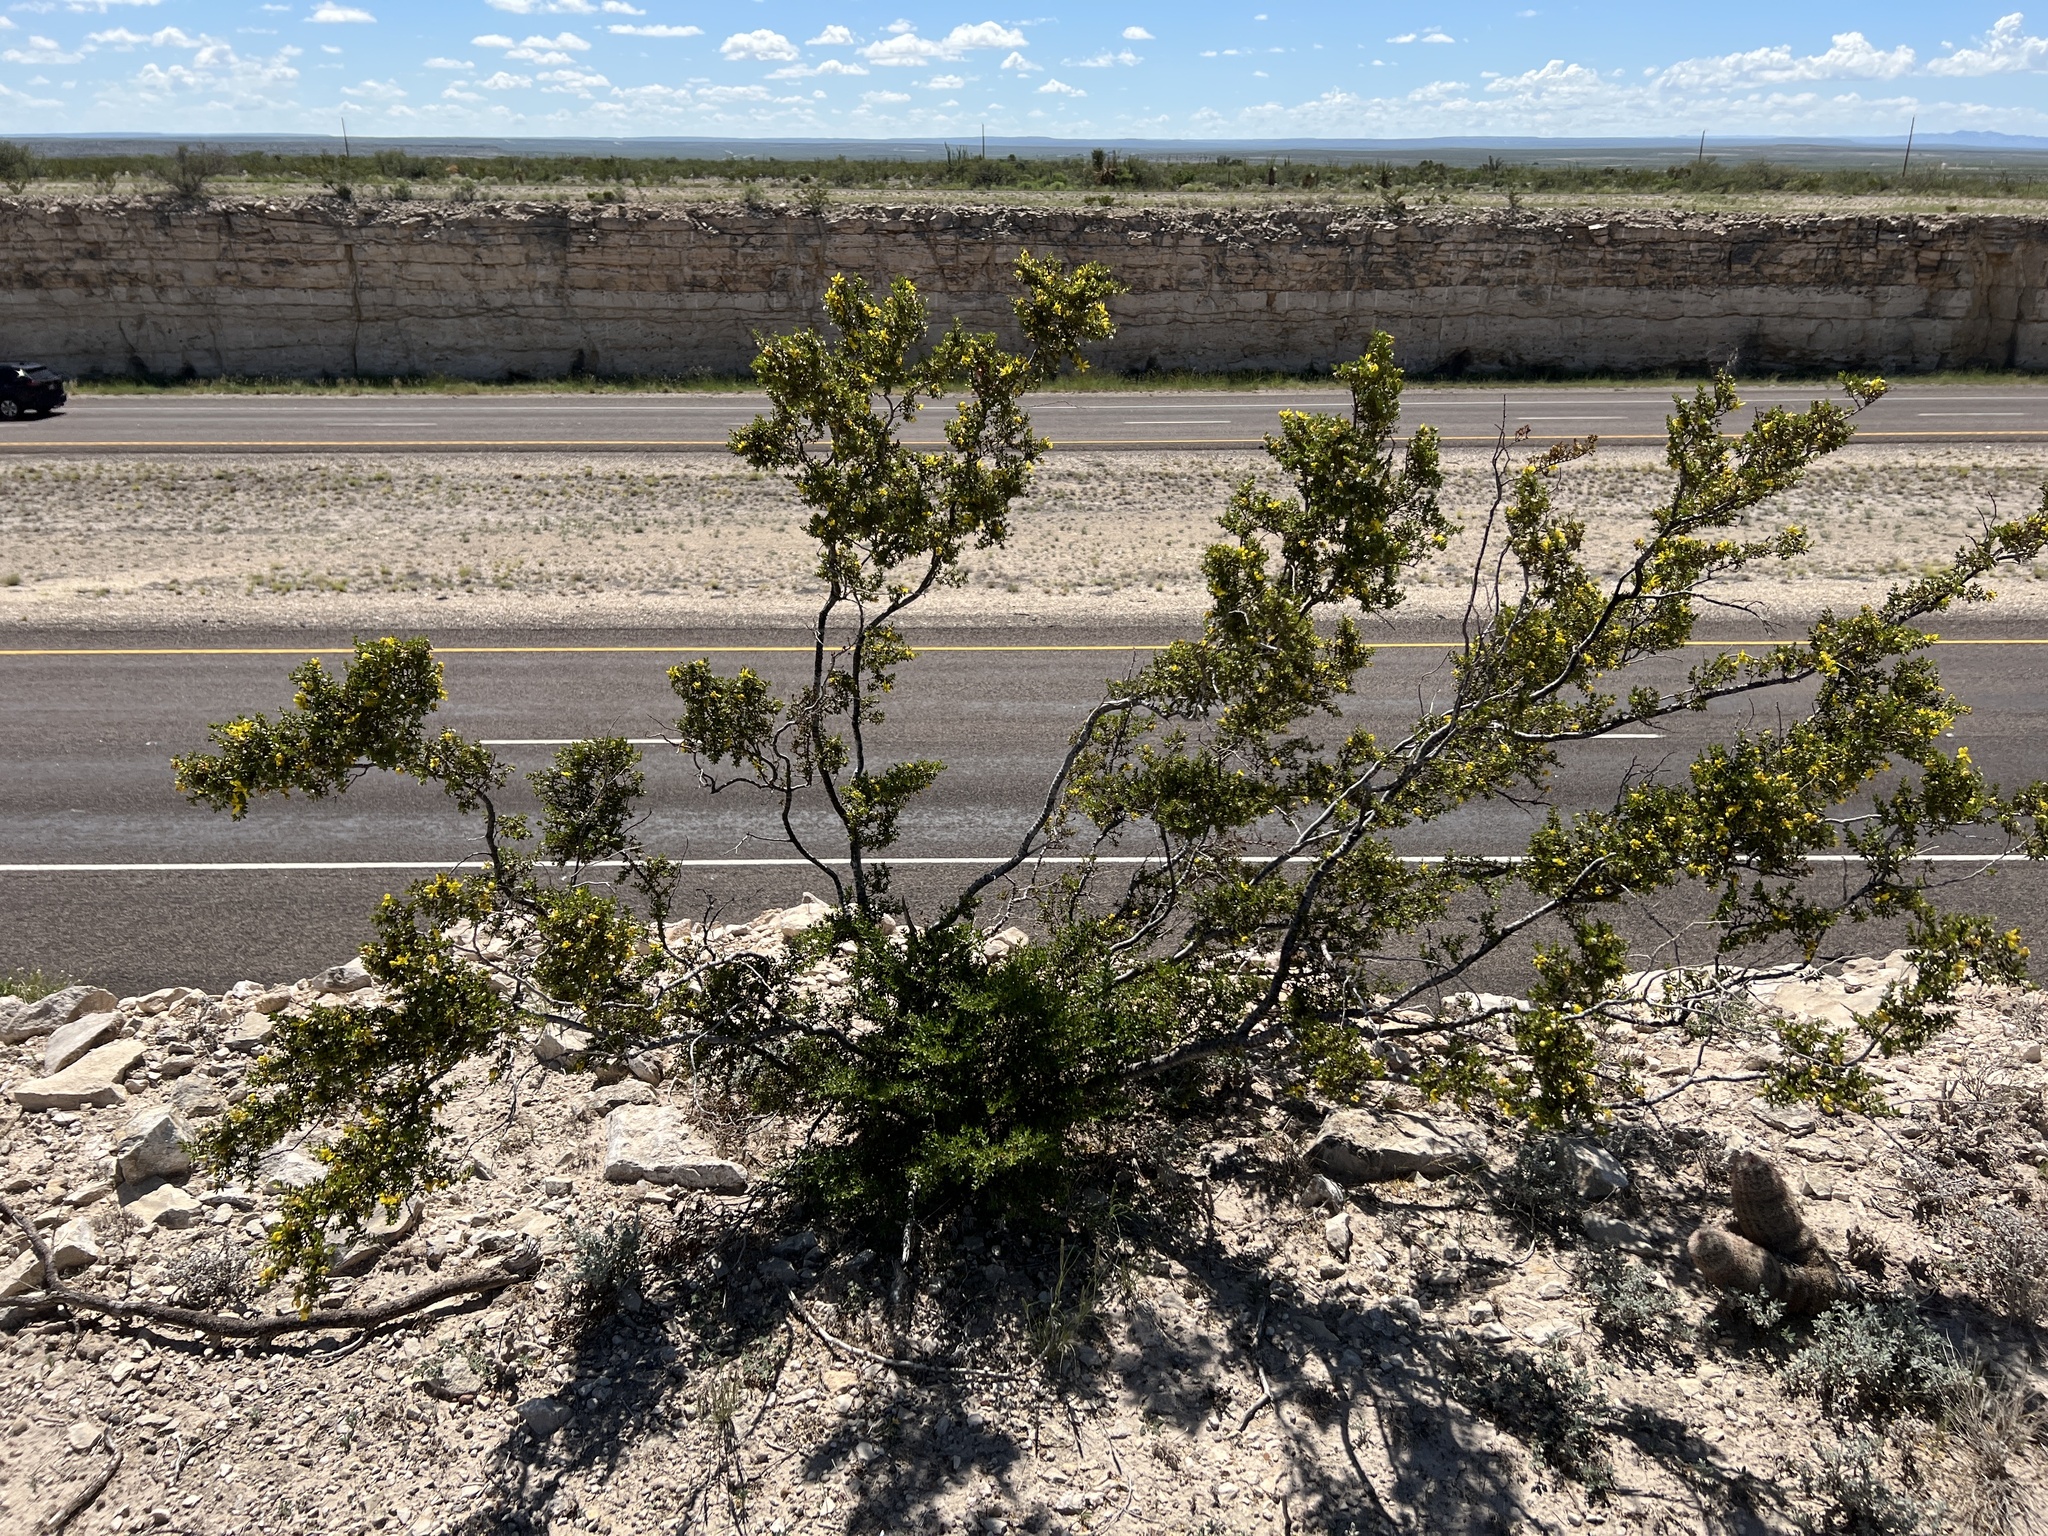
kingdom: Plantae
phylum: Tracheophyta
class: Magnoliopsida
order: Zygophyllales
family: Zygophyllaceae
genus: Larrea
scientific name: Larrea tridentata
